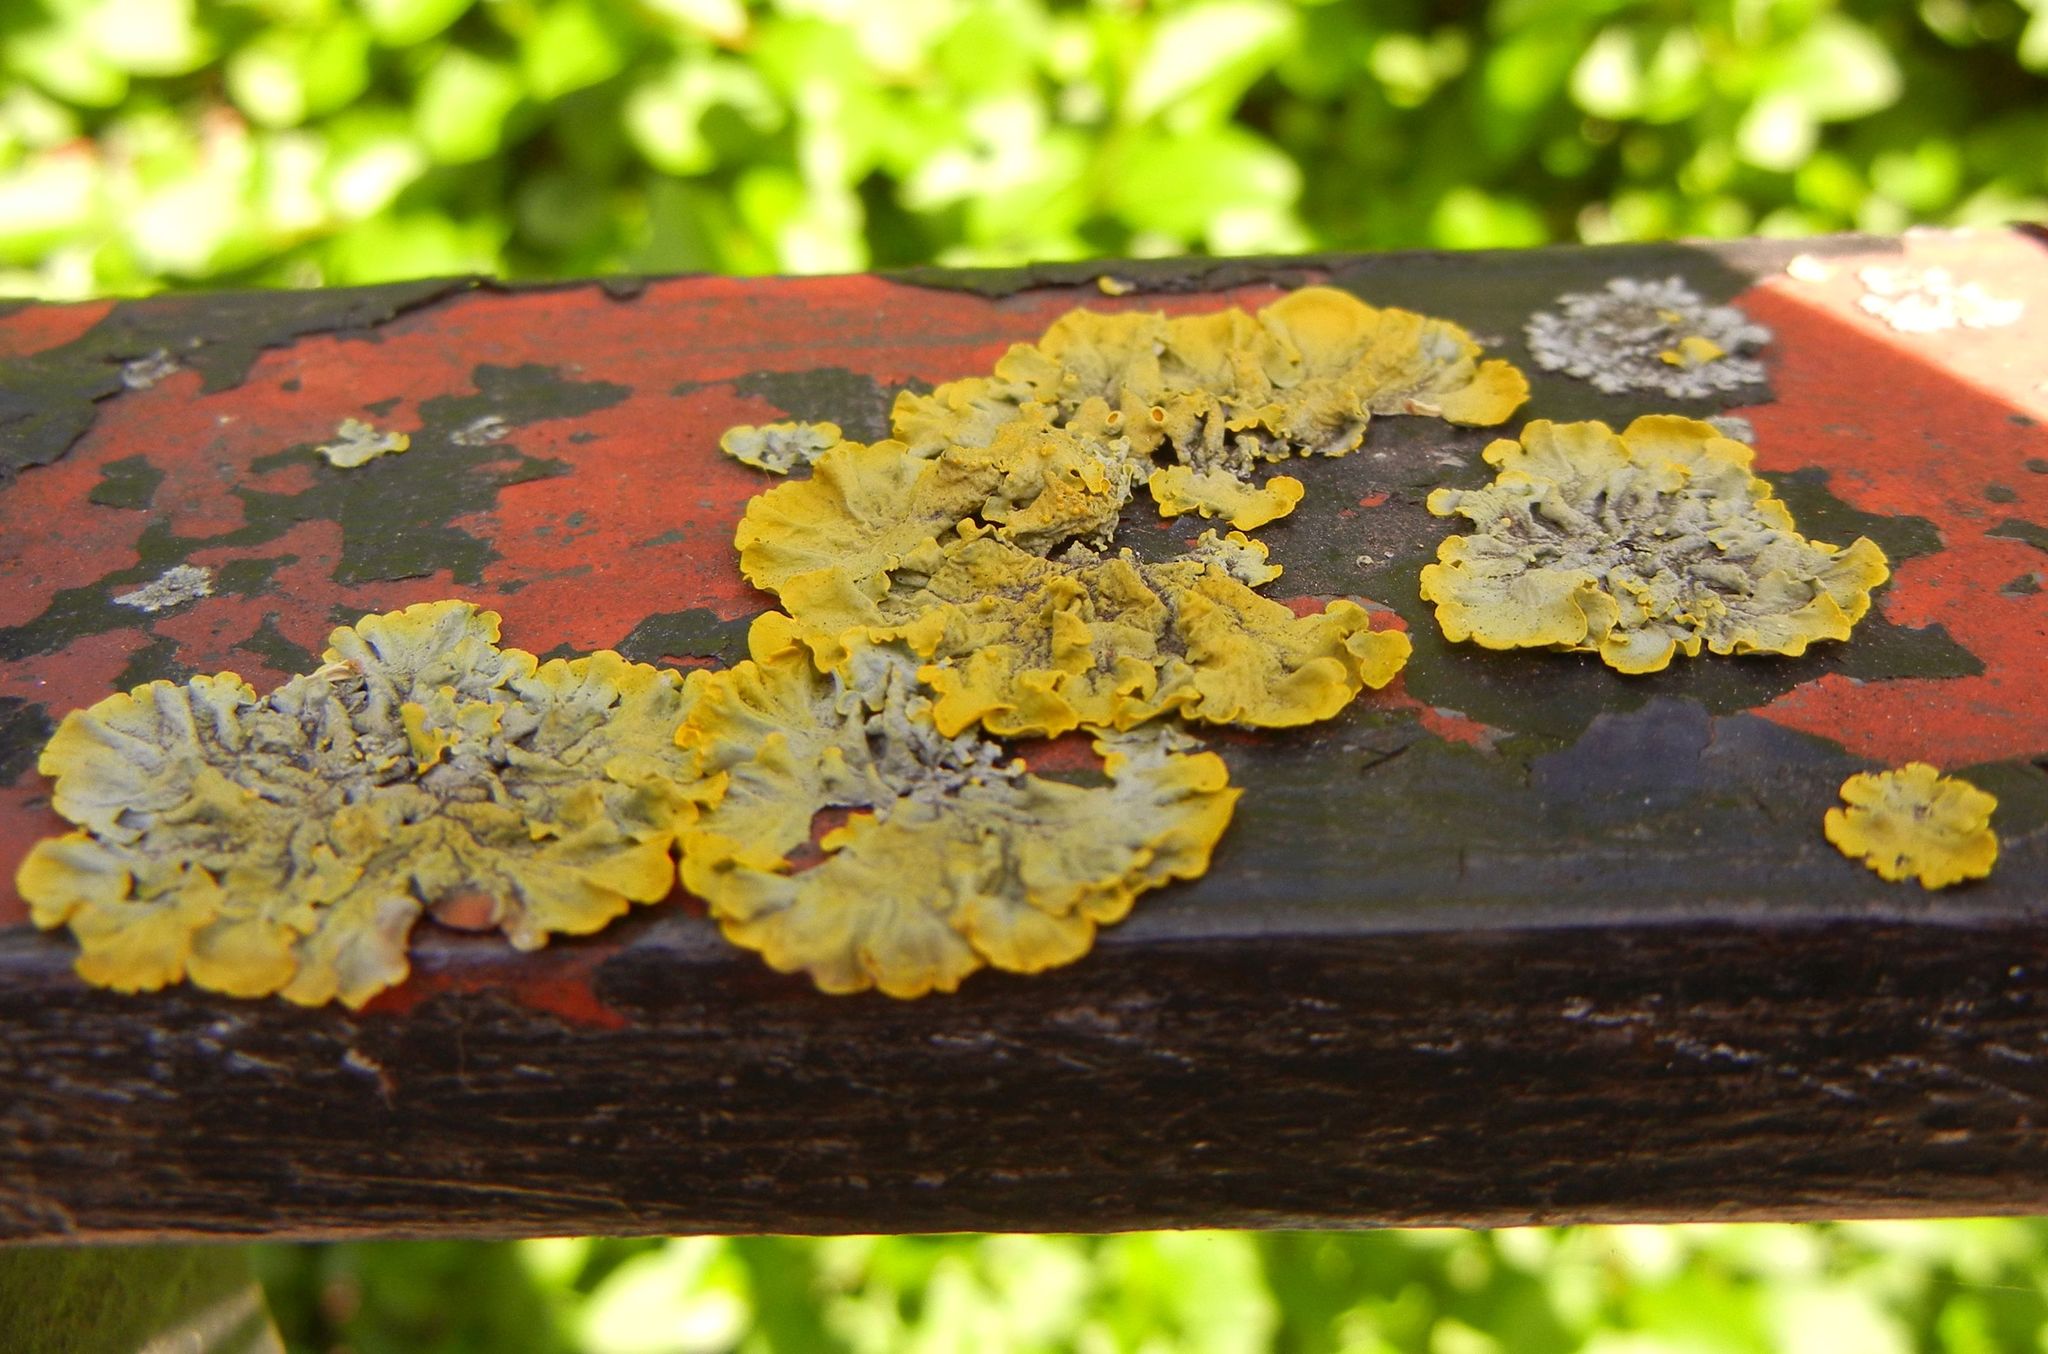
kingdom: Fungi
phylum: Ascomycota
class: Lecanoromycetes
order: Teloschistales
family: Teloschistaceae
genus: Xanthoria
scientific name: Xanthoria parietina
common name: Common orange lichen
